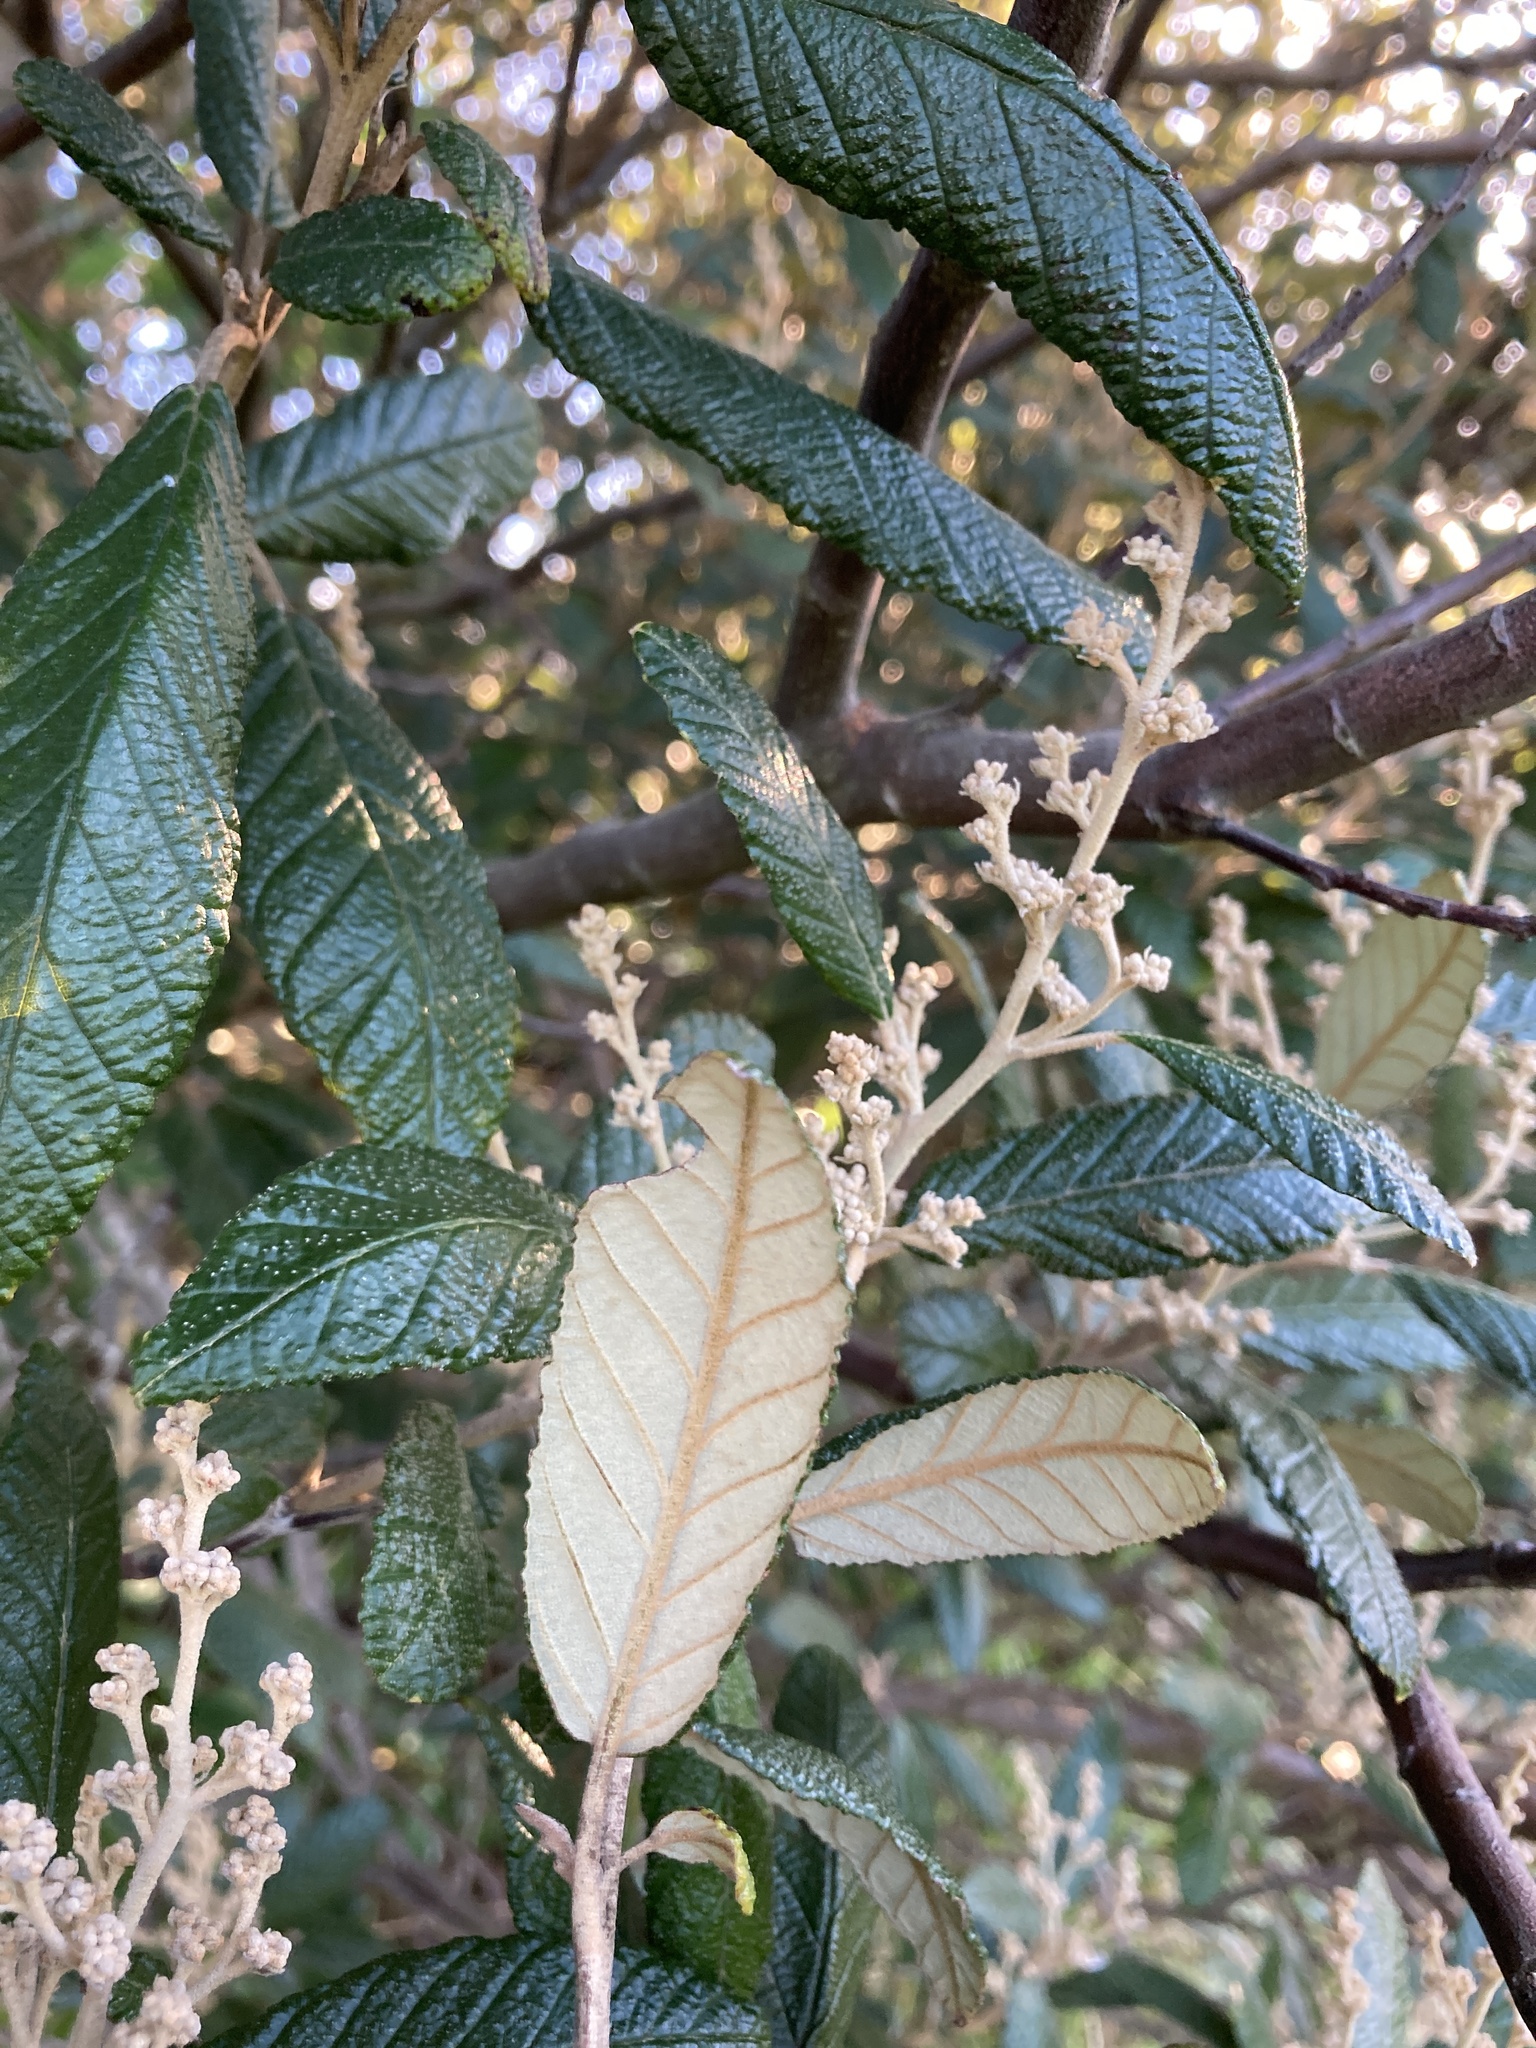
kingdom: Plantae
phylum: Tracheophyta
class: Magnoliopsida
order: Rosales
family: Rhamnaceae
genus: Pomaderris
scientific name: Pomaderris apetala
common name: Hazel pomaderris
